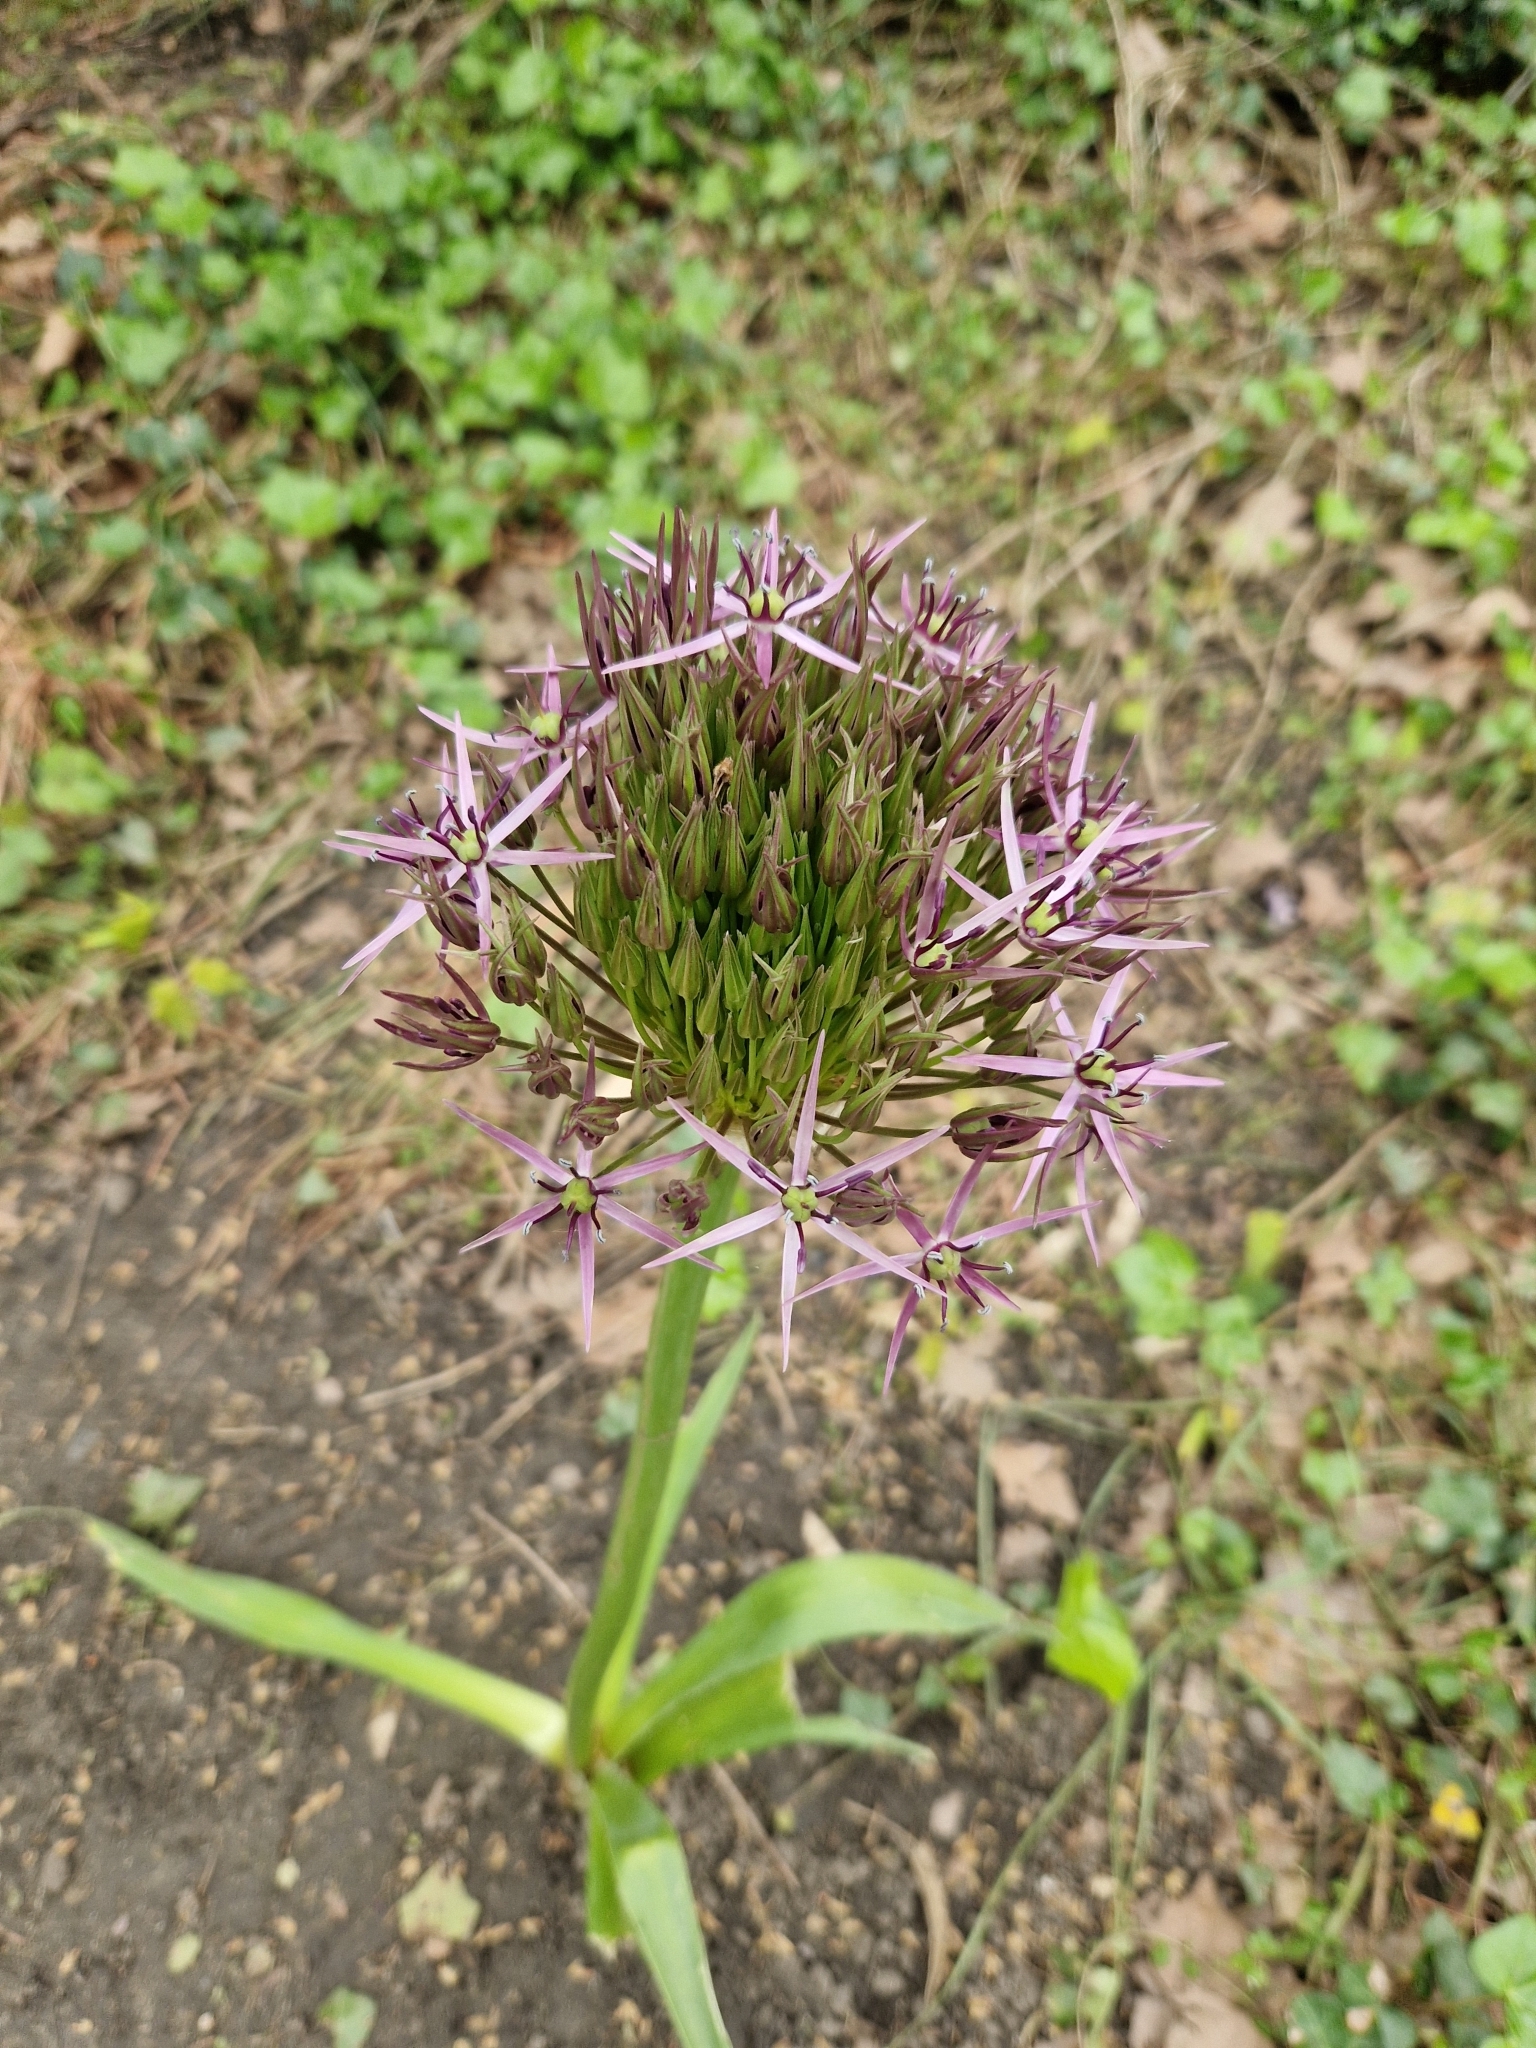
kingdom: Plantae
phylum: Tracheophyta
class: Liliopsida
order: Asparagales
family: Amaryllidaceae
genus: Allium
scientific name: Allium cristophii
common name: Persian onion
